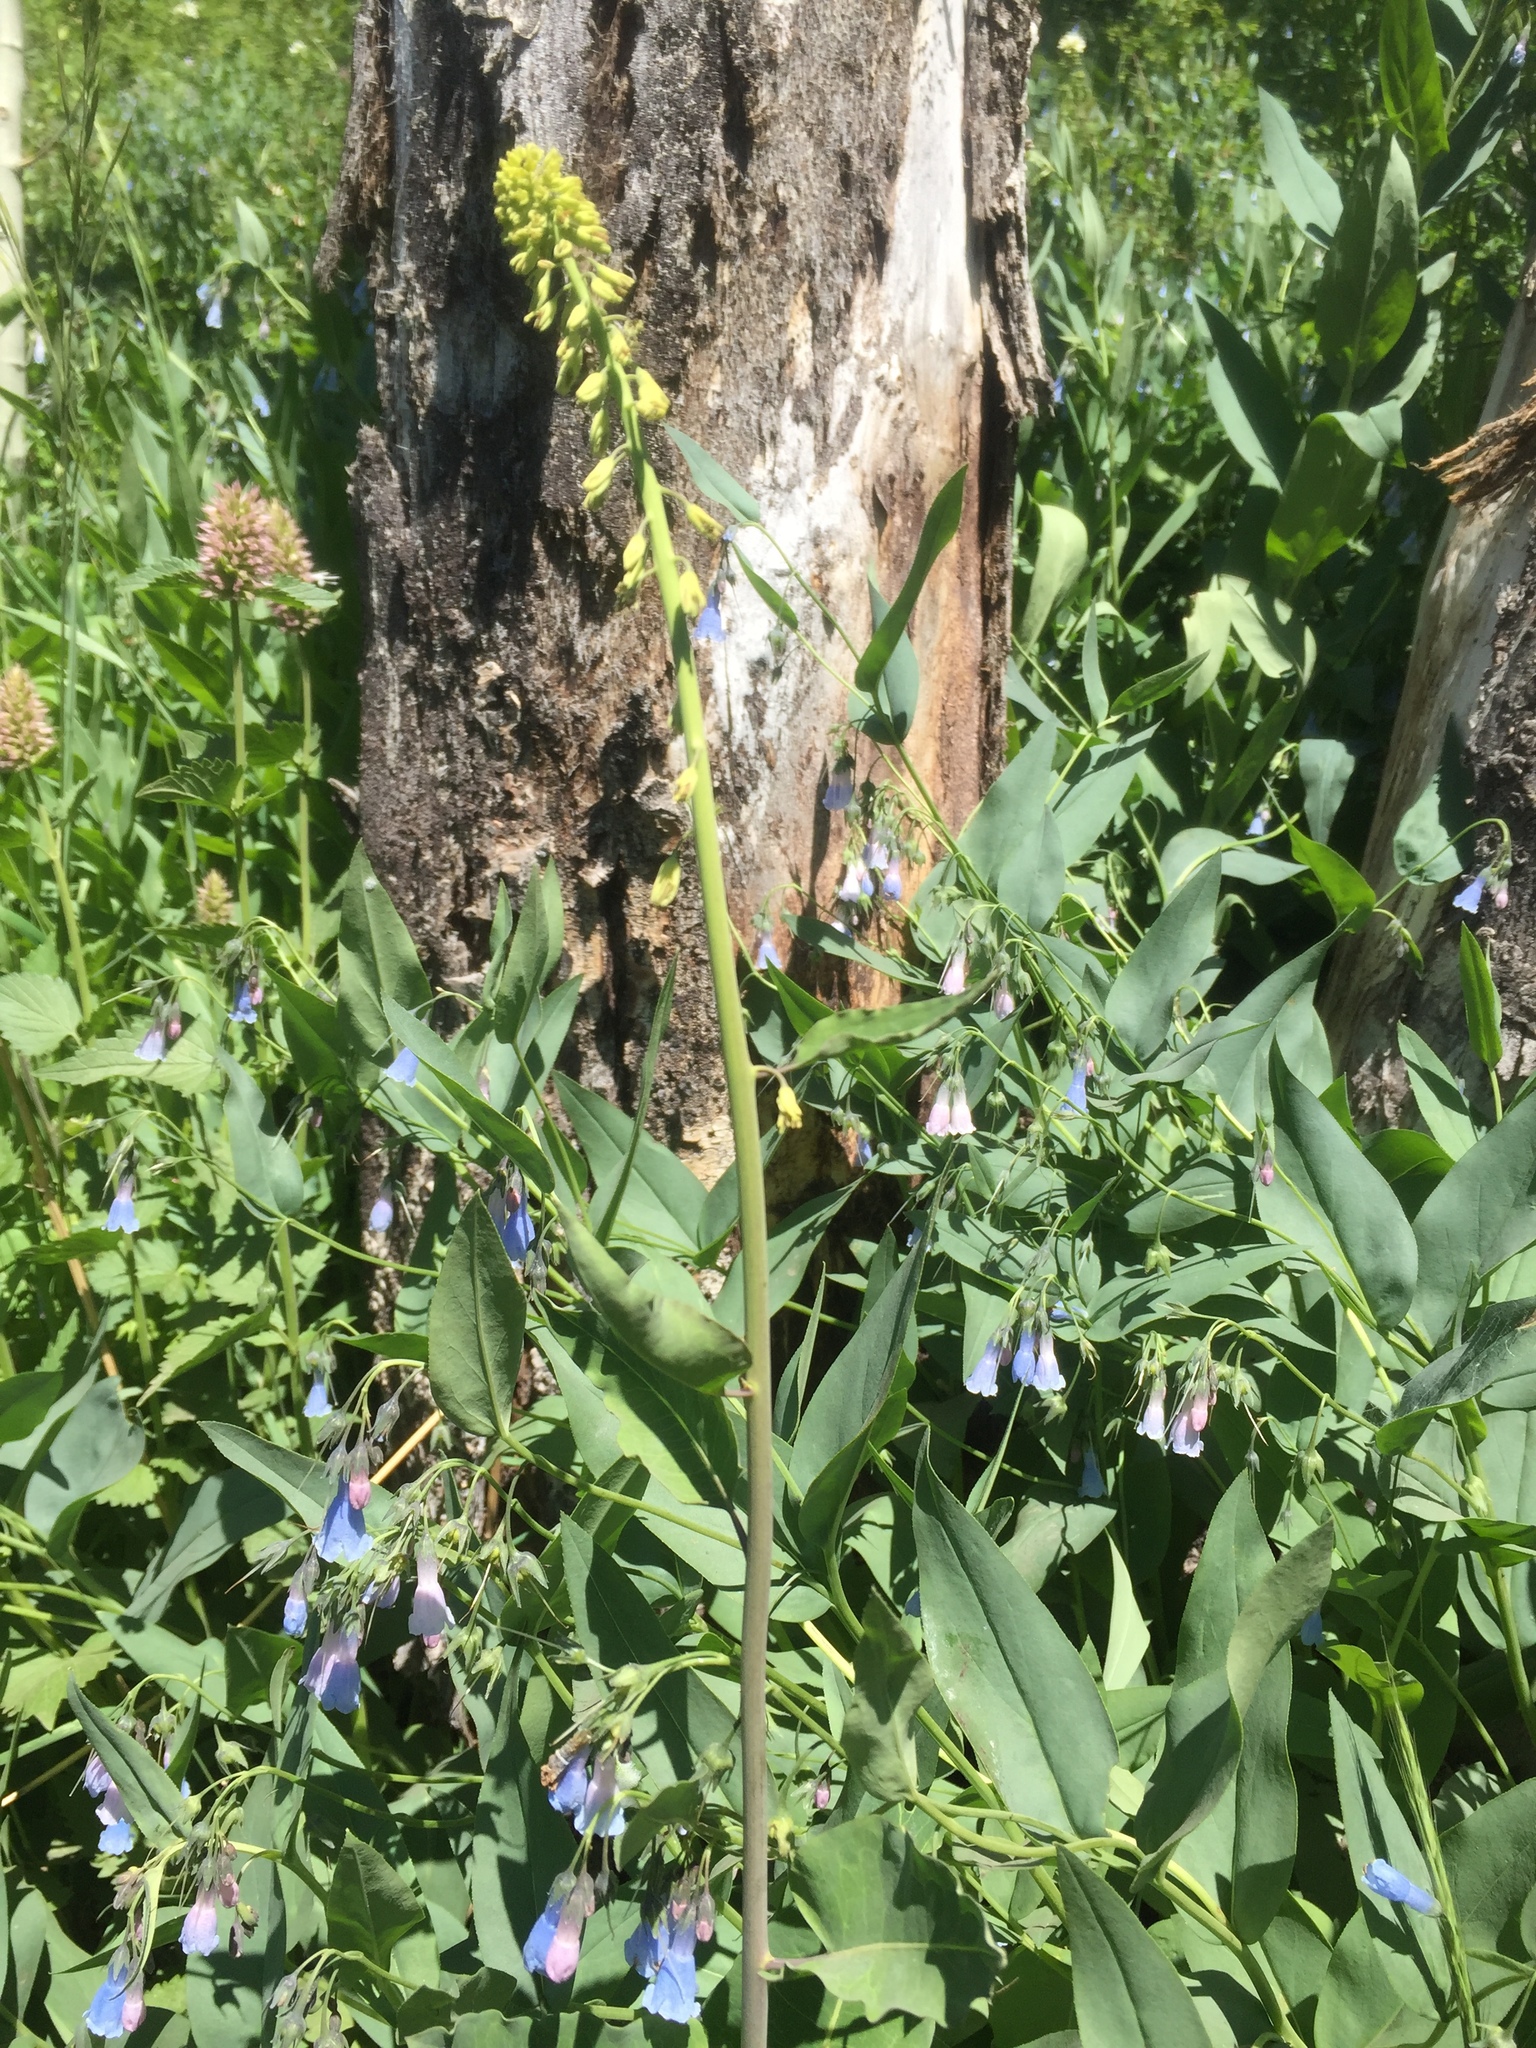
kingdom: Plantae
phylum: Tracheophyta
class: Magnoliopsida
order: Brassicales
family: Brassicaceae
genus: Chlorocrambe
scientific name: Chlorocrambe hastata
